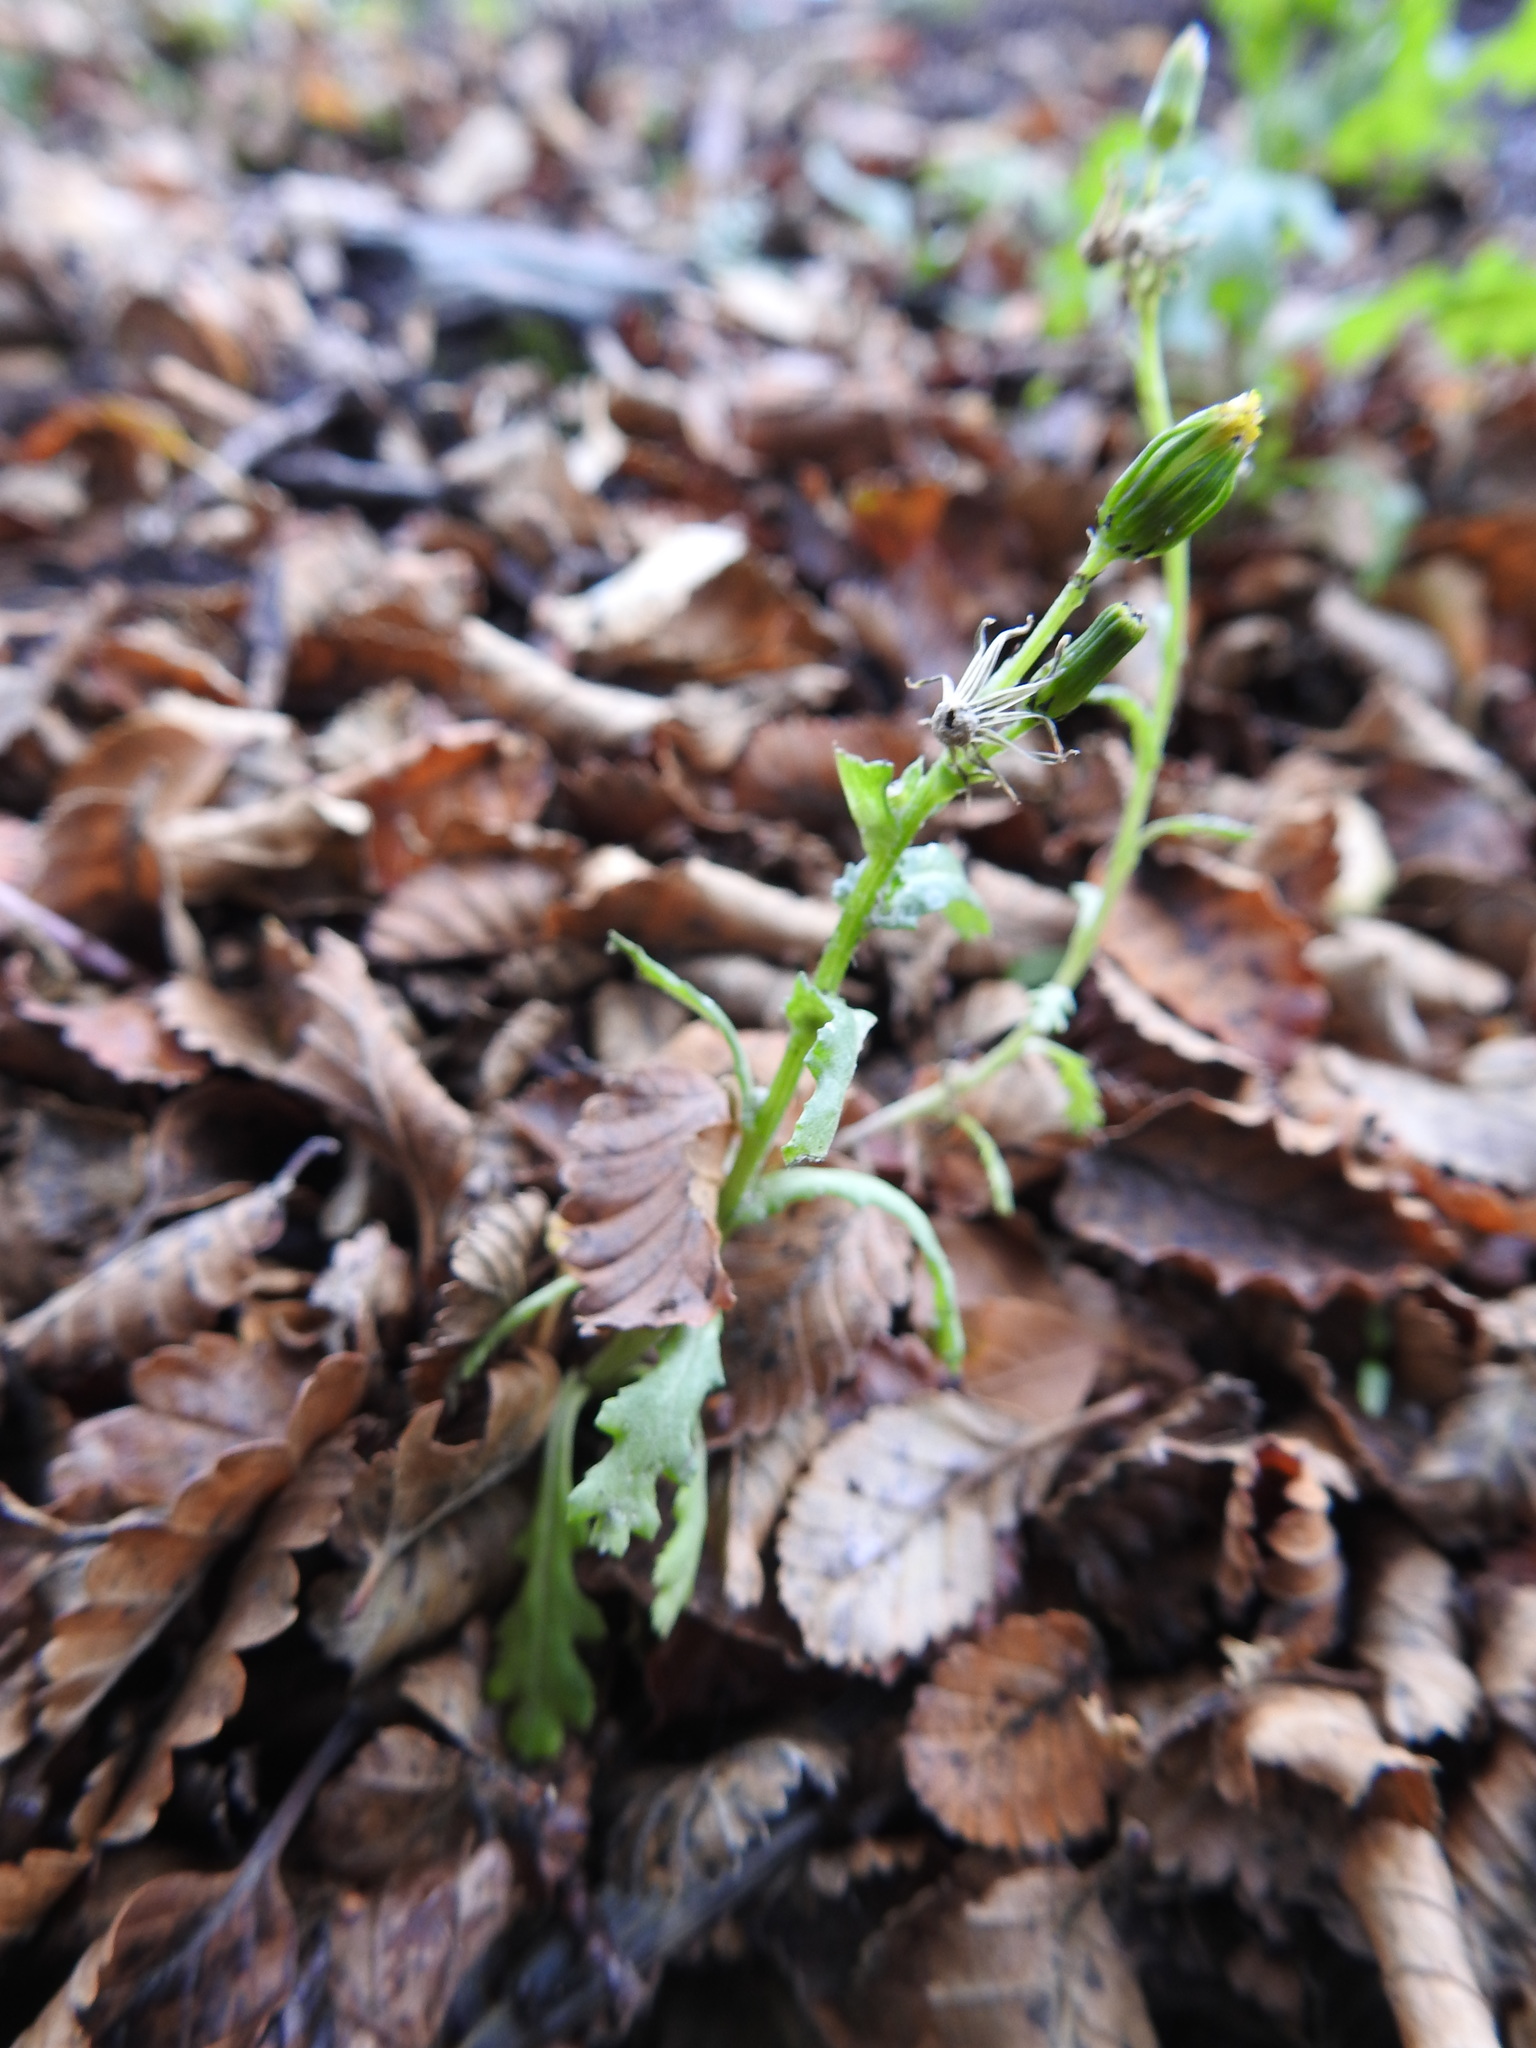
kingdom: Plantae
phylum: Tracheophyta
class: Magnoliopsida
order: Asterales
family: Asteraceae
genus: Senecio
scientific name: Senecio vulgaris
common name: Old-man-in-the-spring
